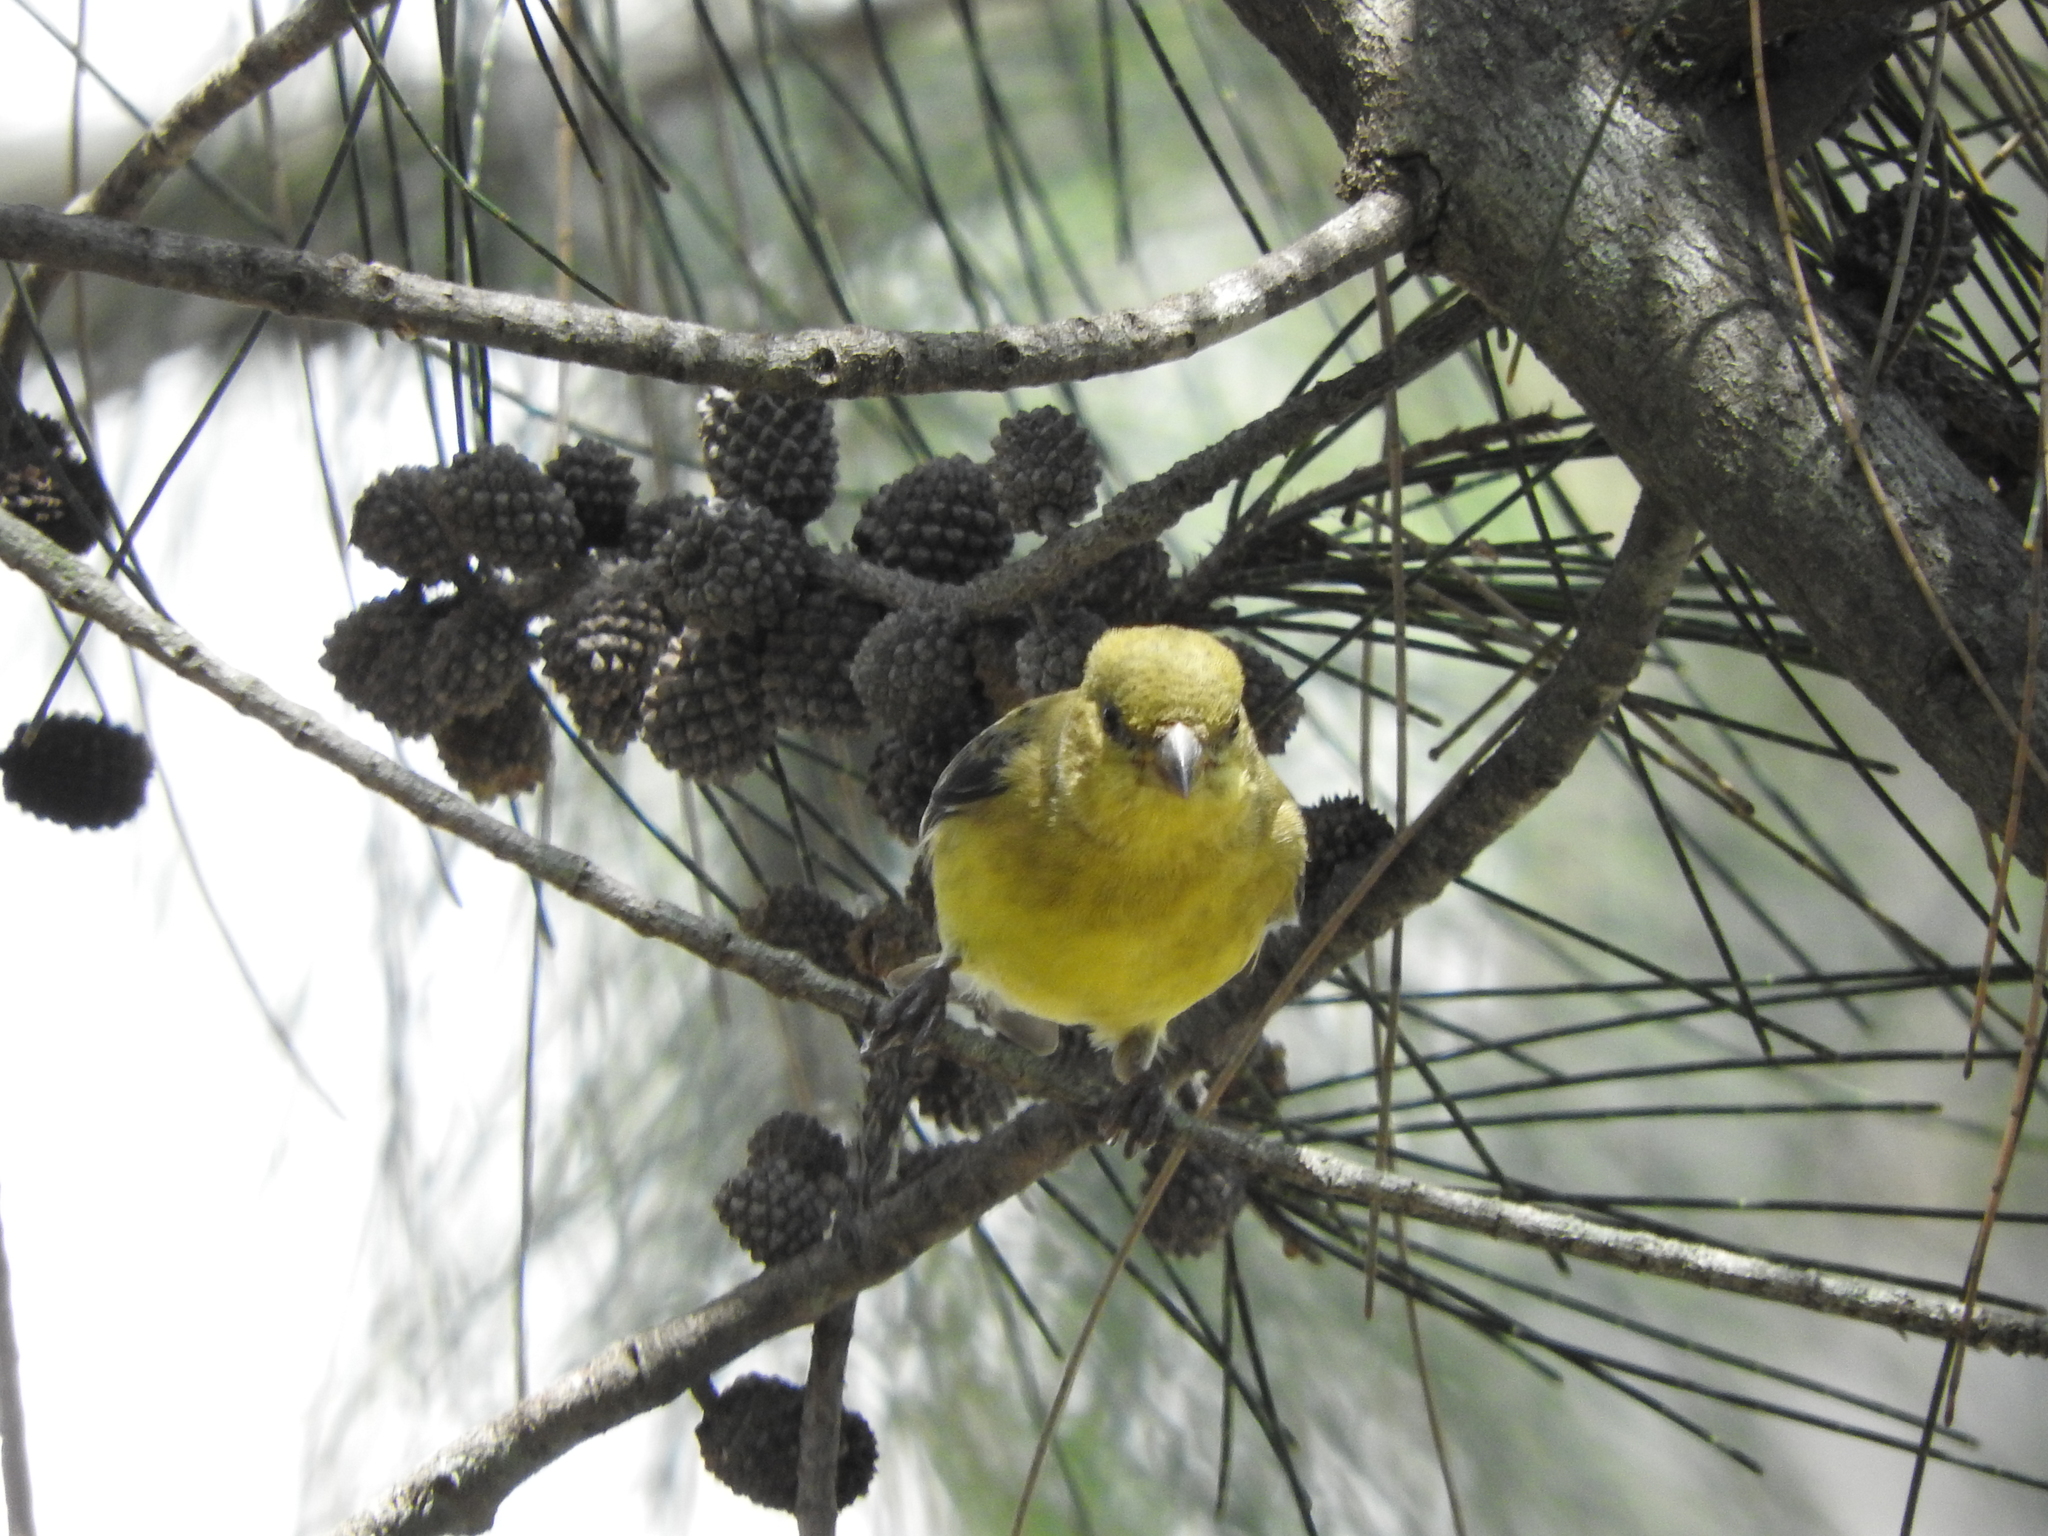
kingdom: Animalia
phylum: Chordata
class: Aves
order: Passeriformes
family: Fringillidae
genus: Spinus
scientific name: Spinus psaltria
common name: Lesser goldfinch
